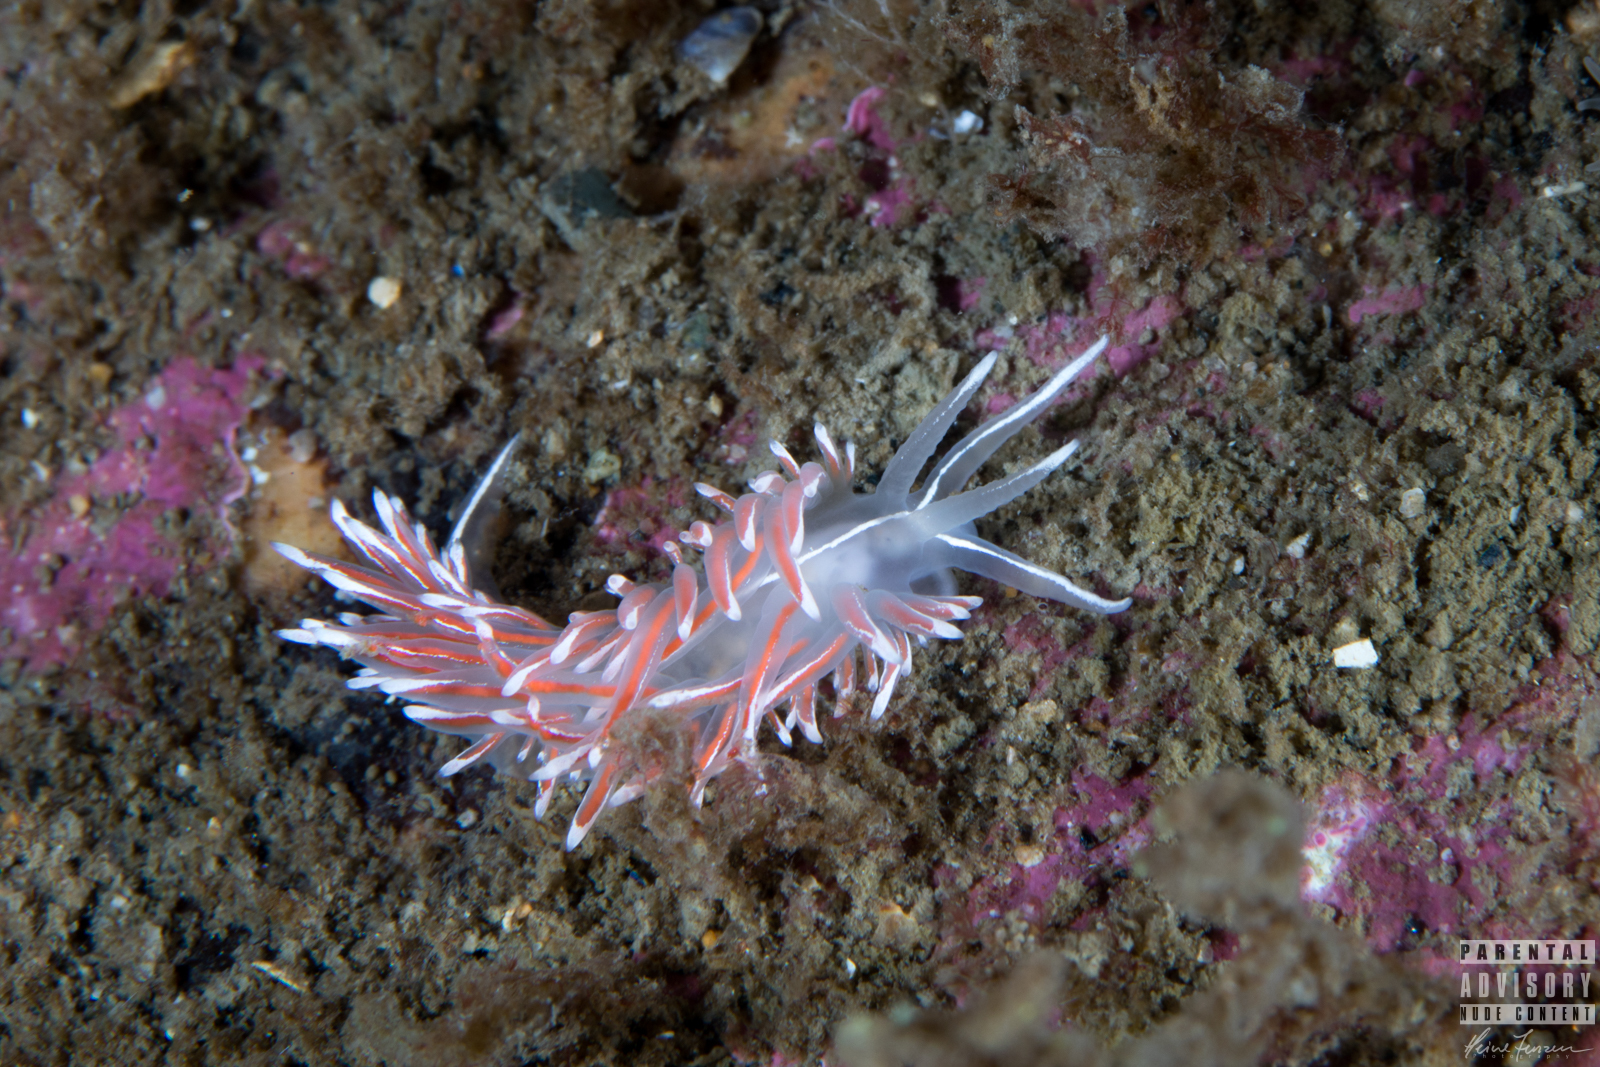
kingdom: Animalia
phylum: Mollusca
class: Gastropoda
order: Nudibranchia
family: Coryphellidae
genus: Coryphella
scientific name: Coryphella lineata
